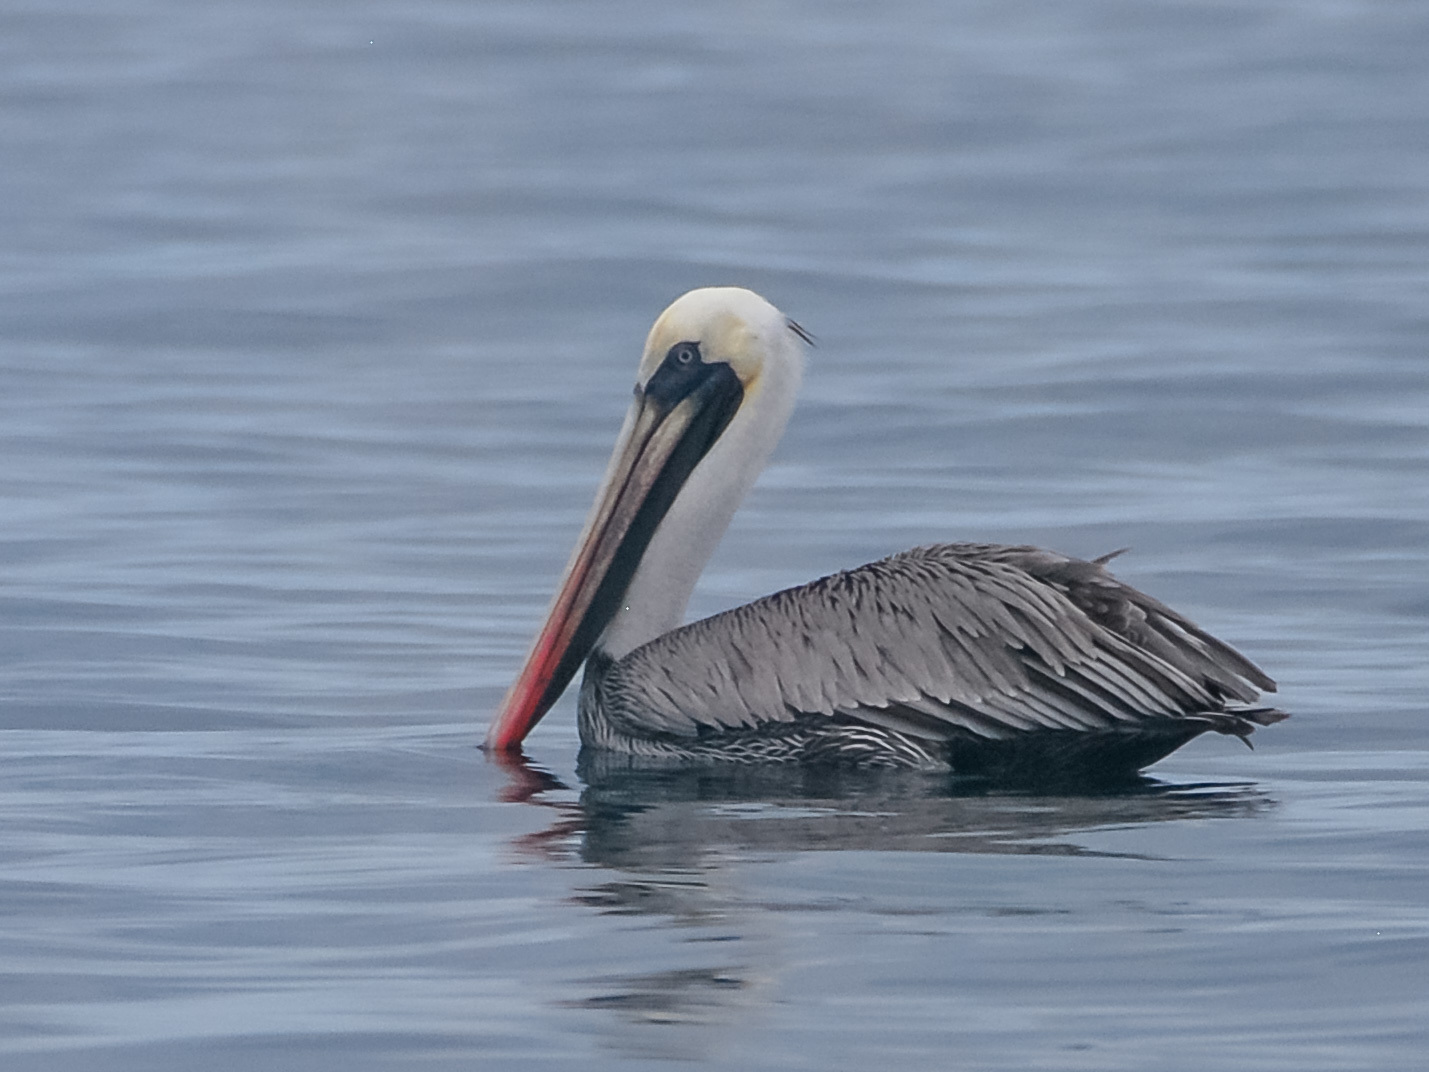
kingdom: Animalia
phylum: Chordata
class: Aves
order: Pelecaniformes
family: Pelecanidae
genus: Pelecanus
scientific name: Pelecanus occidentalis
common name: Brown pelican
